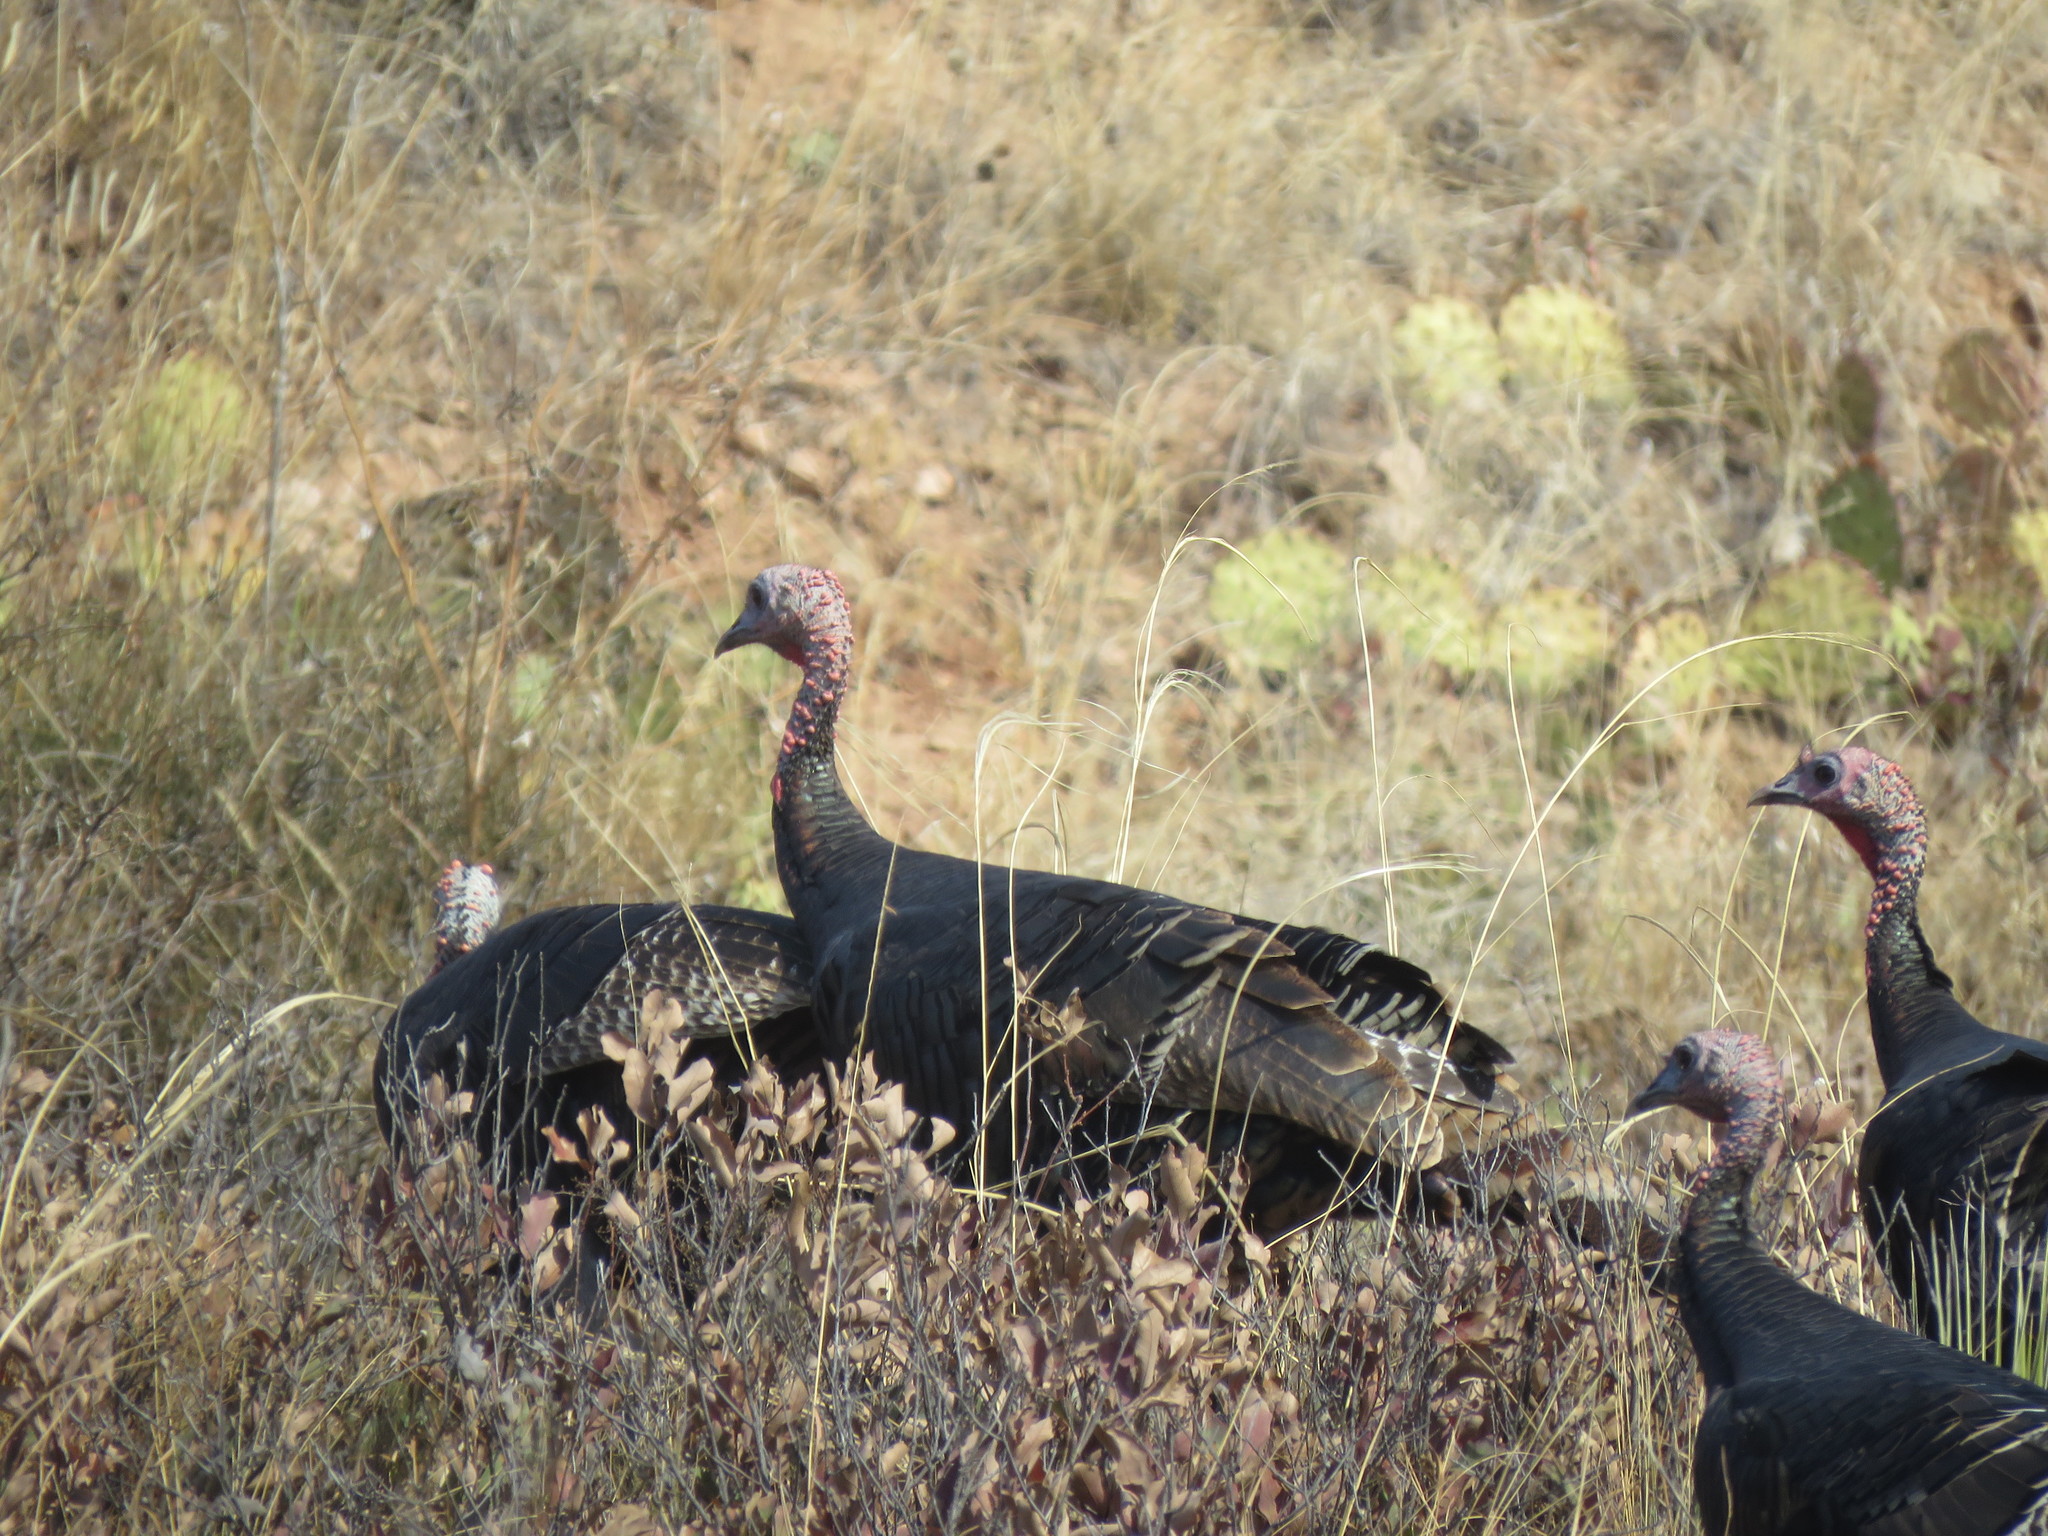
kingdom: Animalia
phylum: Chordata
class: Aves
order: Galliformes
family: Phasianidae
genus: Meleagris
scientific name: Meleagris gallopavo
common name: Wild turkey
